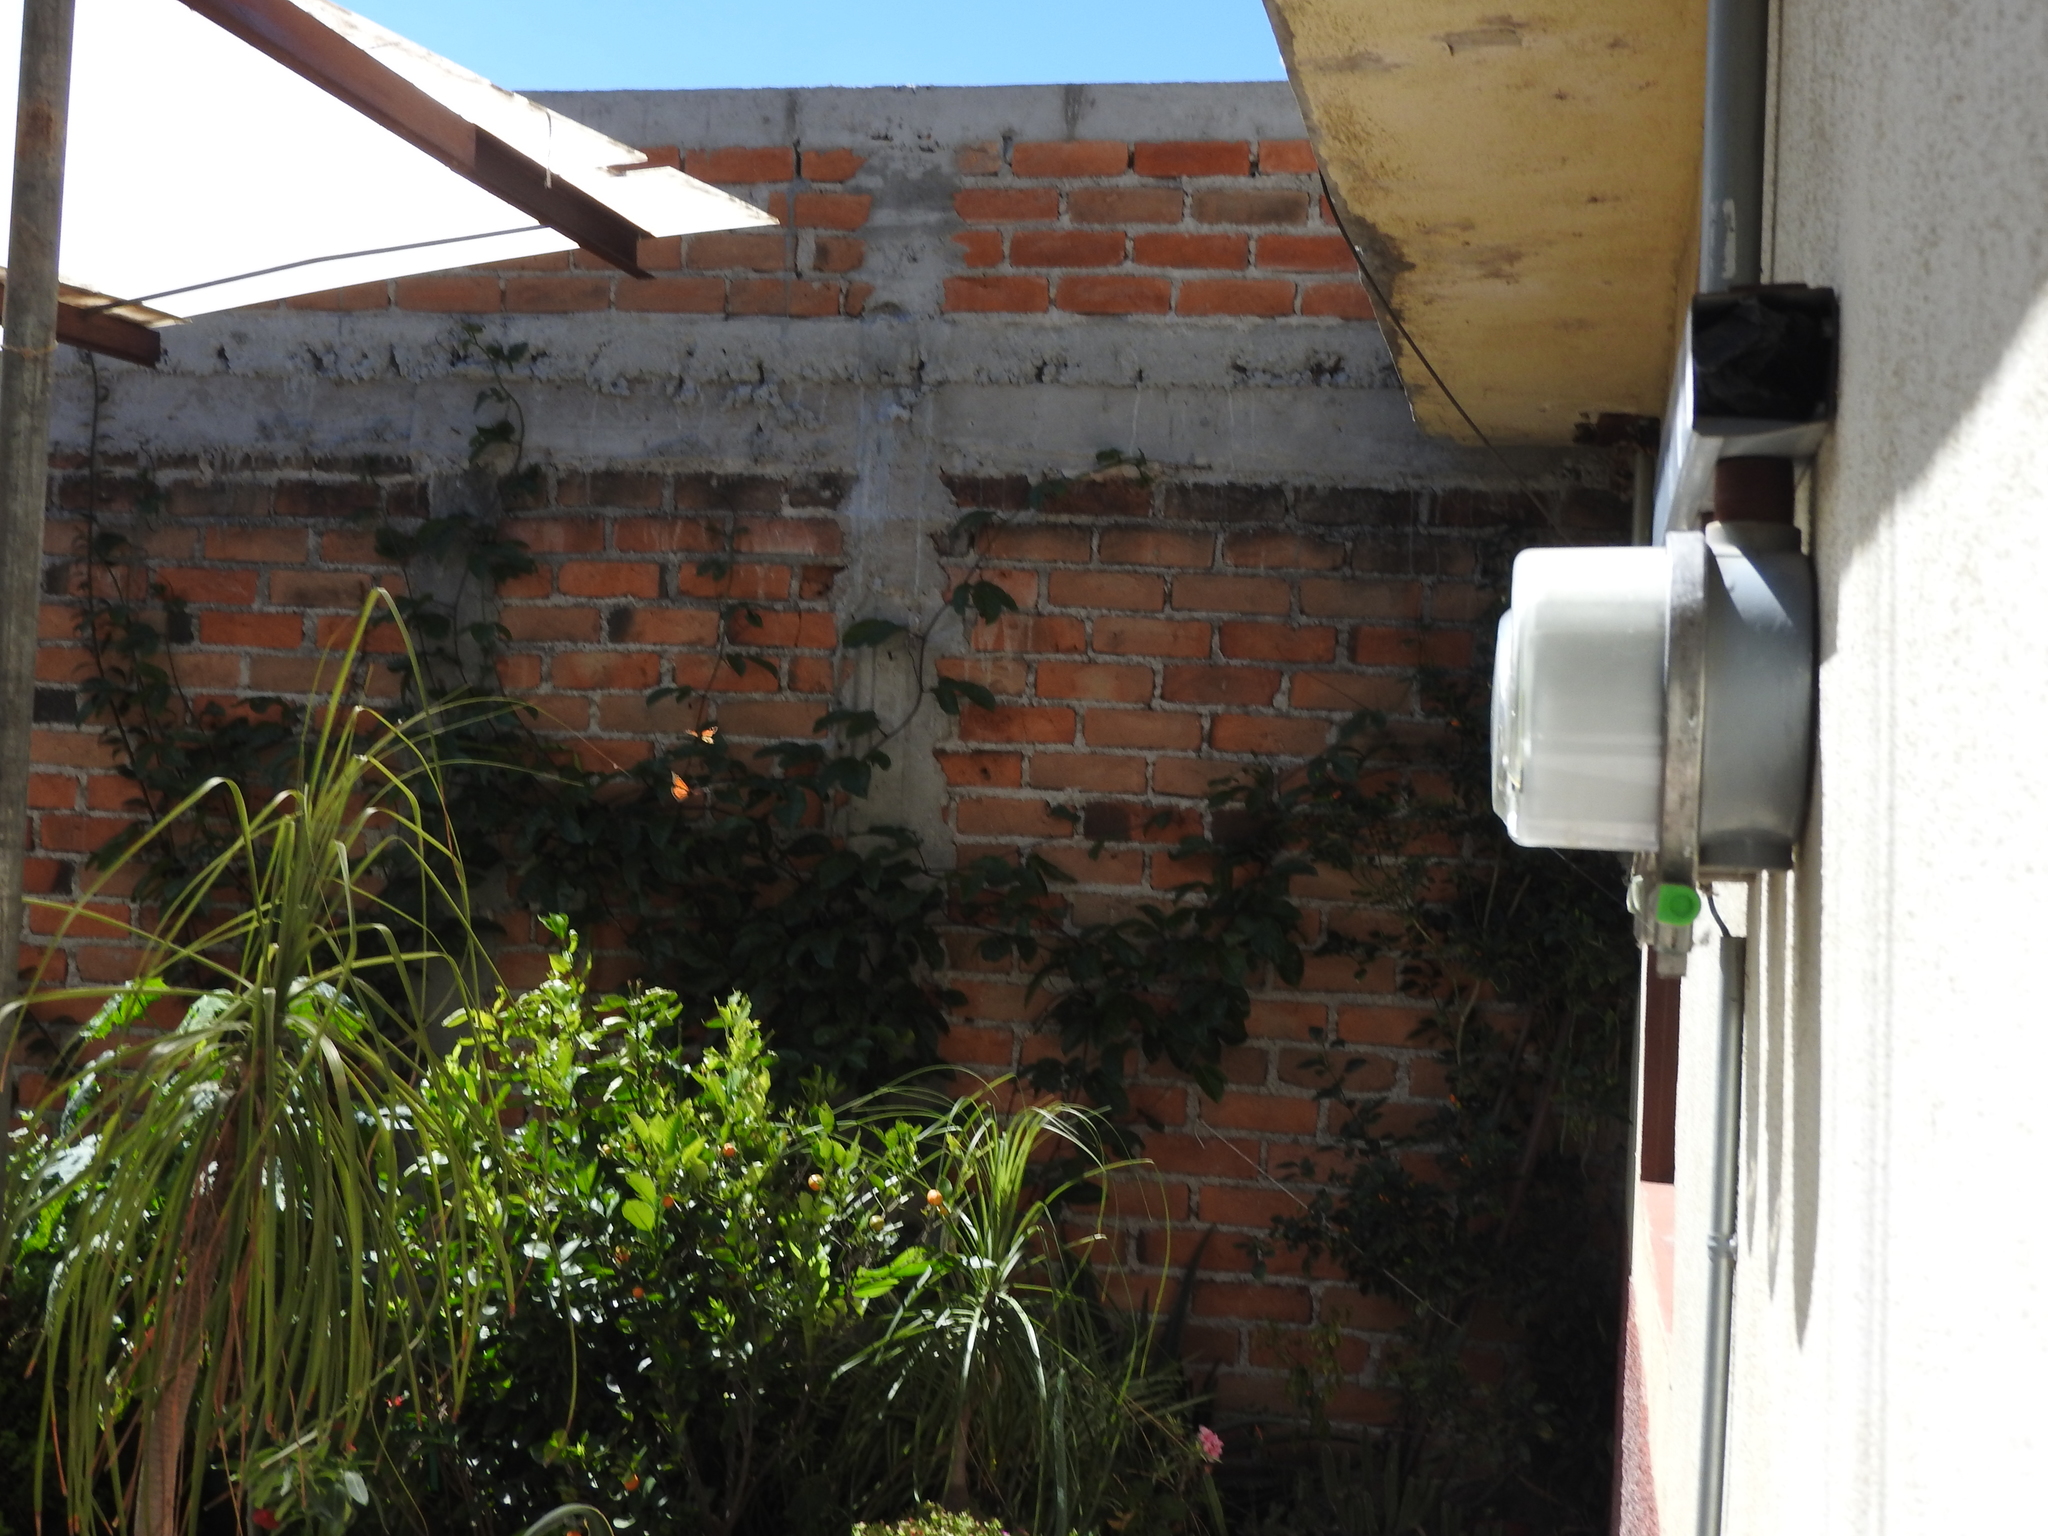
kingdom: Animalia
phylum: Arthropoda
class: Insecta
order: Lepidoptera
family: Nymphalidae
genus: Danaus
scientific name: Danaus plexippus
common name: Monarch
